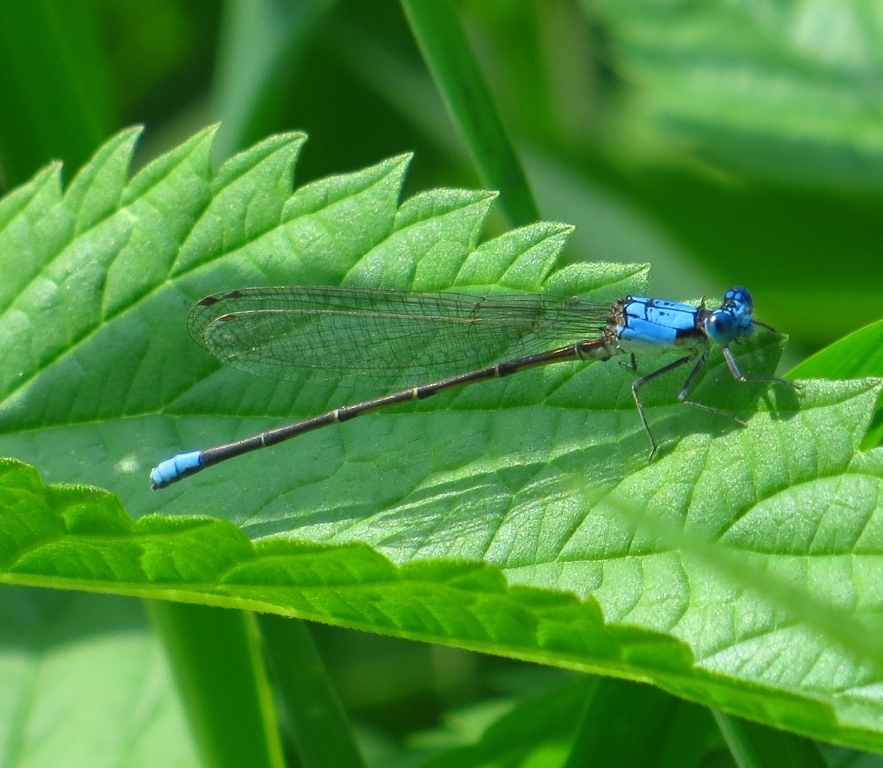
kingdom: Animalia
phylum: Arthropoda
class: Insecta
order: Odonata
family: Coenagrionidae
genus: Argia
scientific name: Argia apicalis
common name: Blue-fronted dancer
